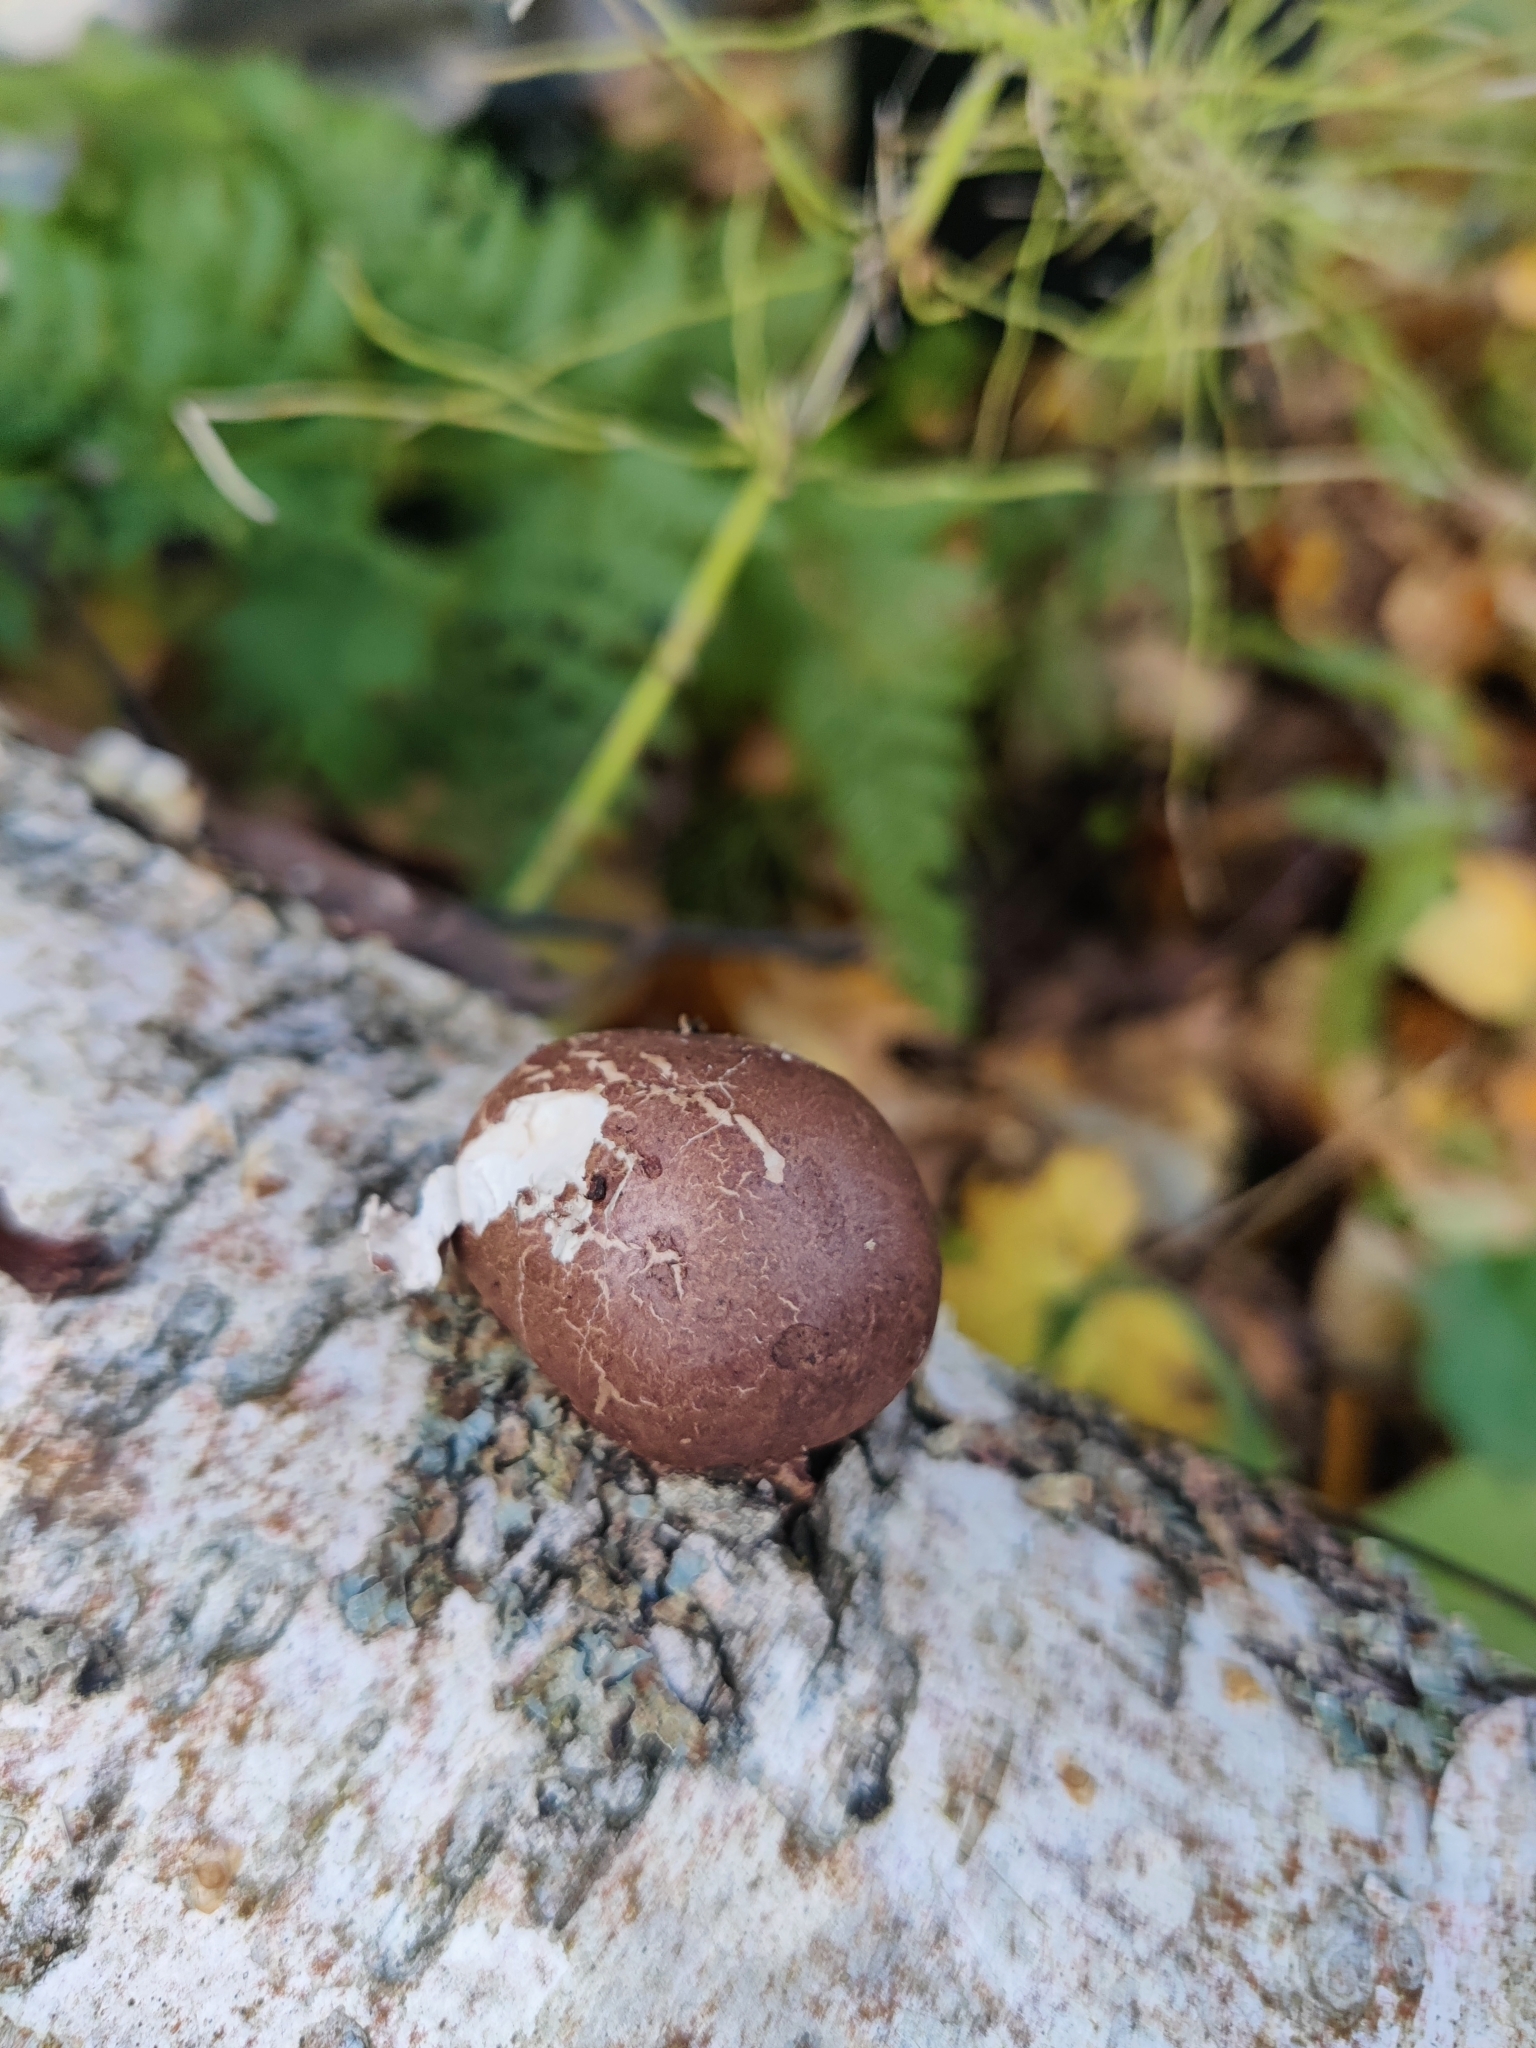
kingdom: Fungi
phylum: Basidiomycota
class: Agaricomycetes
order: Polyporales
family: Fomitopsidaceae
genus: Fomitopsis
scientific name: Fomitopsis betulina
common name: Birch polypore
